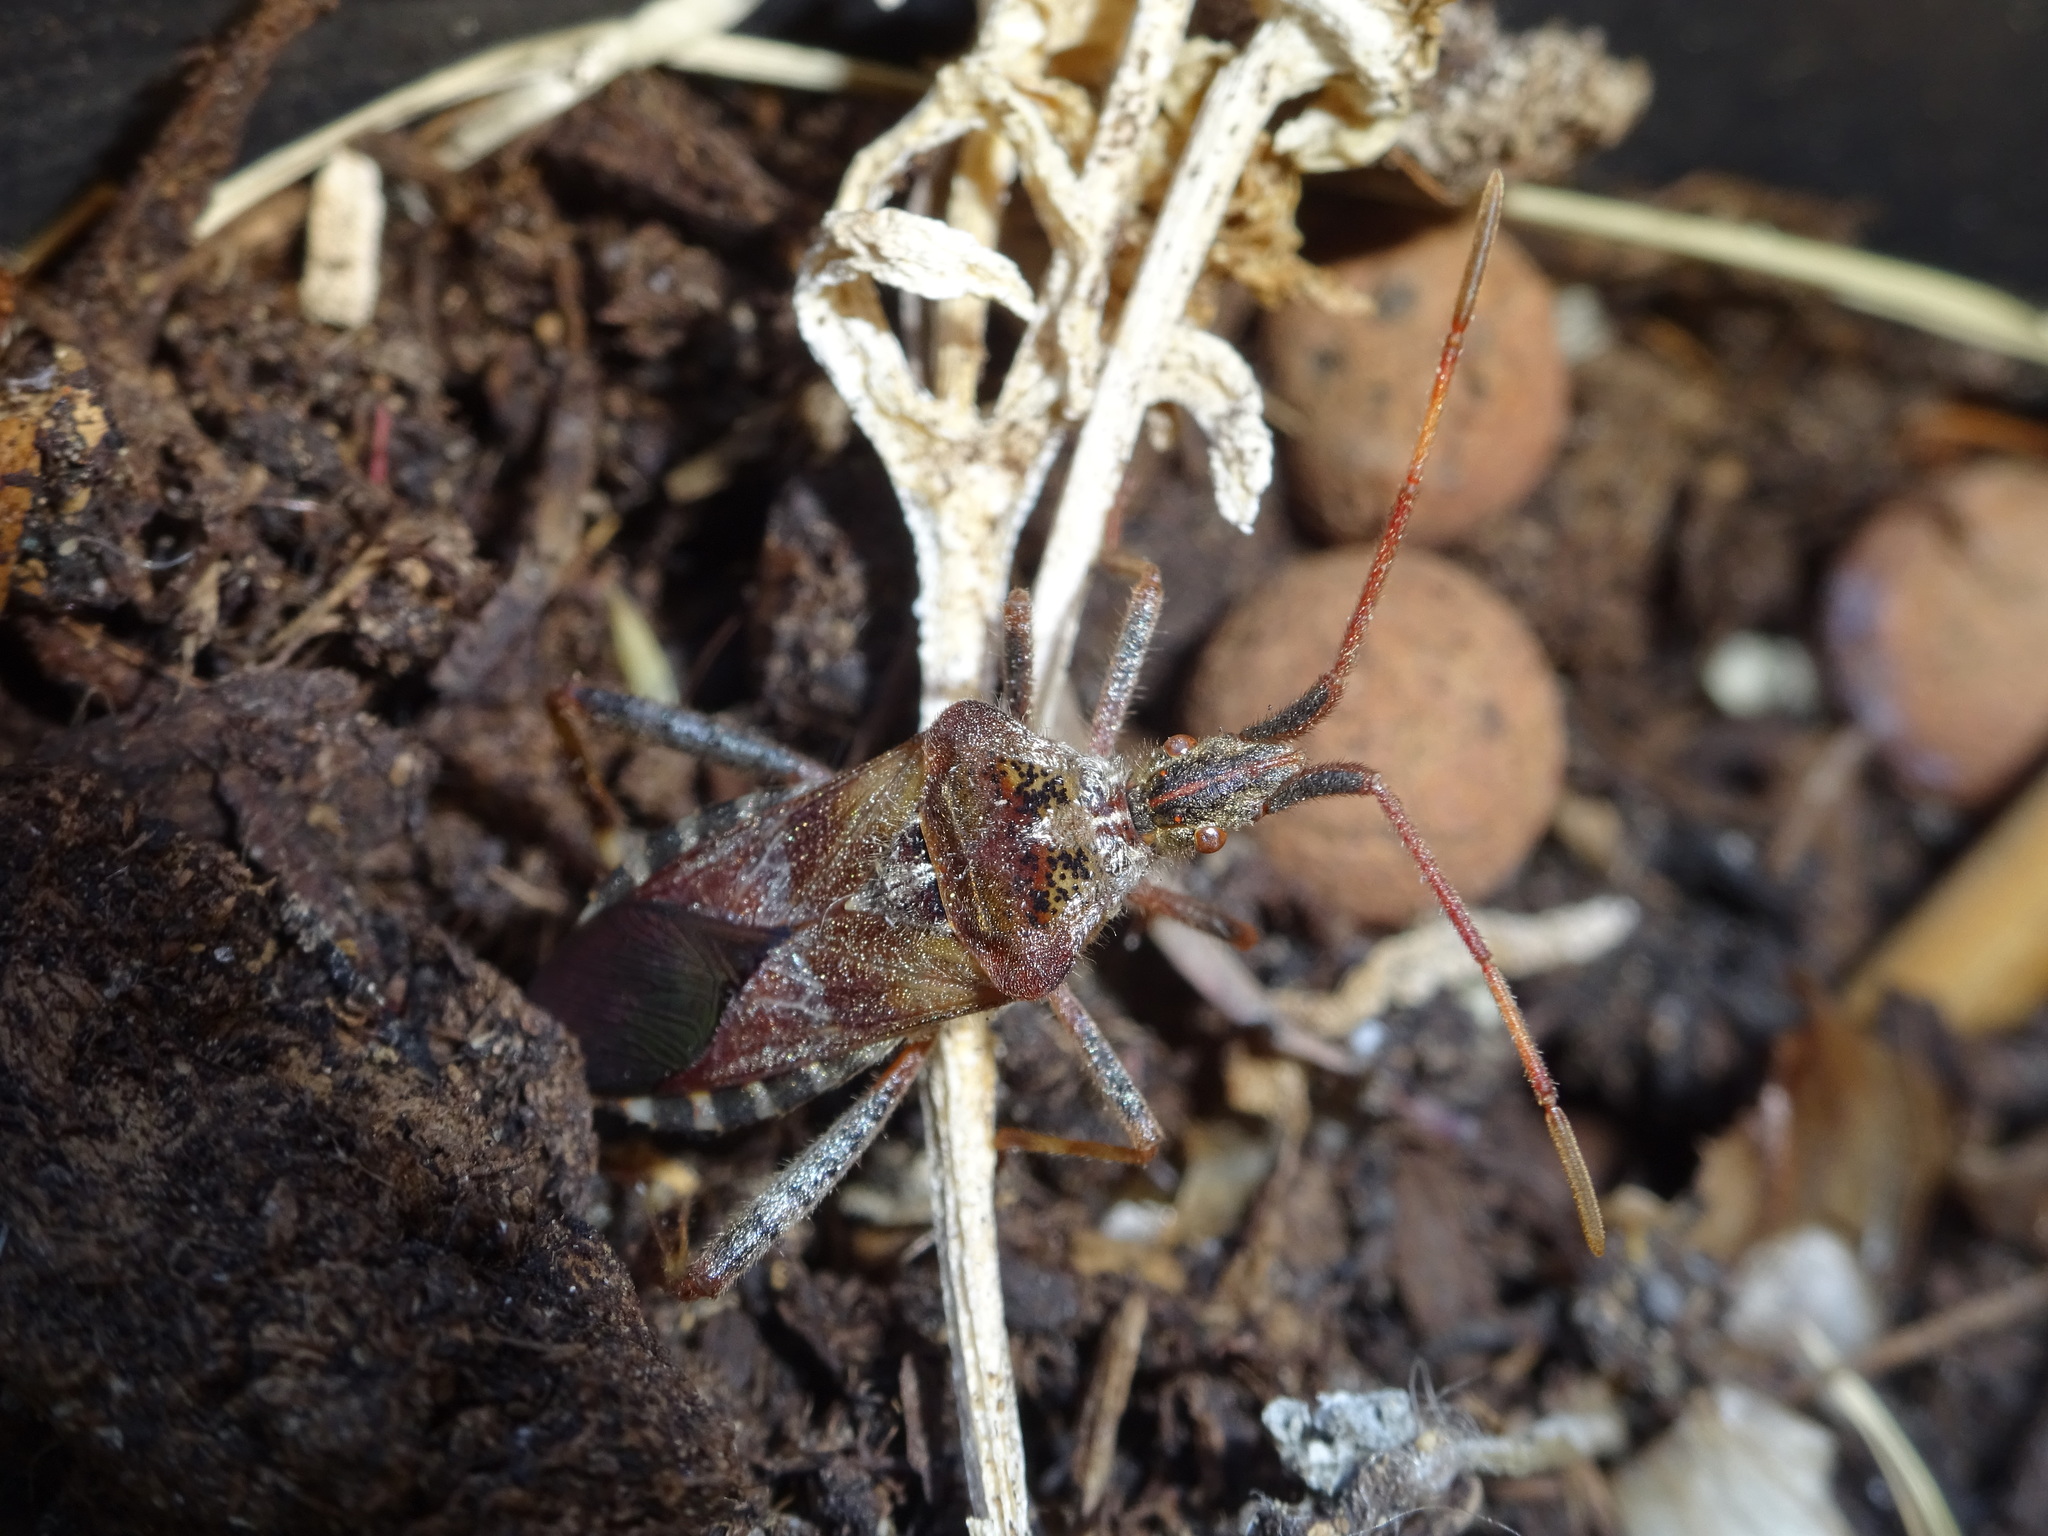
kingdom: Animalia
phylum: Arthropoda
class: Insecta
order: Hemiptera
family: Coreidae
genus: Leptoglossus
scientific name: Leptoglossus occidentalis
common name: Western conifer-seed bug
